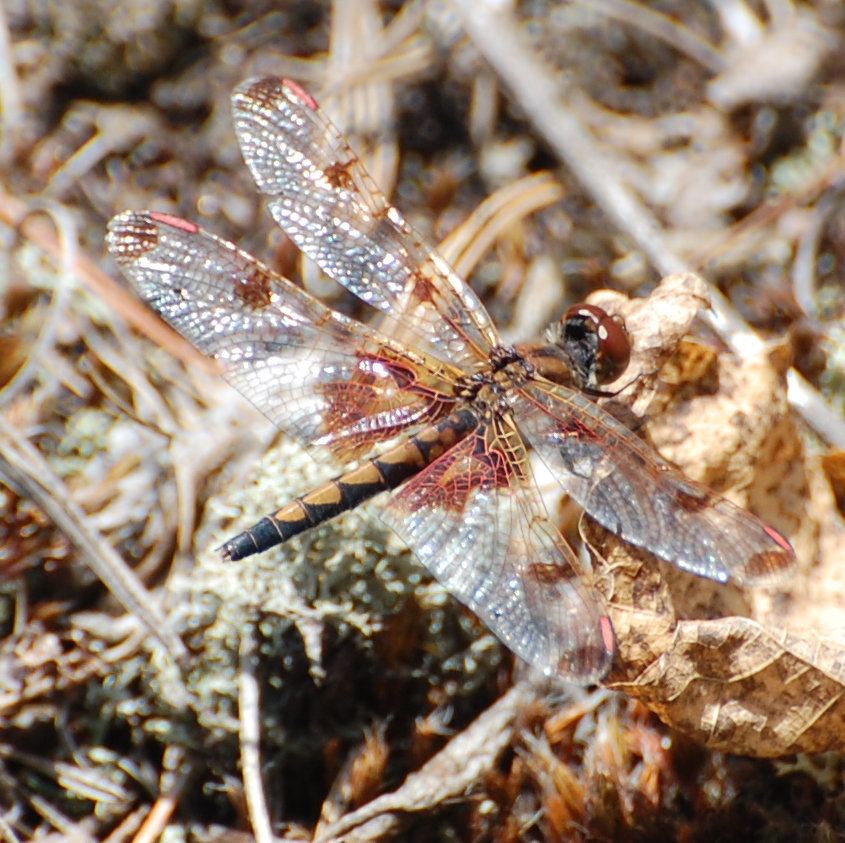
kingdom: Animalia
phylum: Arthropoda
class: Insecta
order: Odonata
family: Libellulidae
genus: Celithemis
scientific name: Celithemis elisa
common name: Calico pennant
